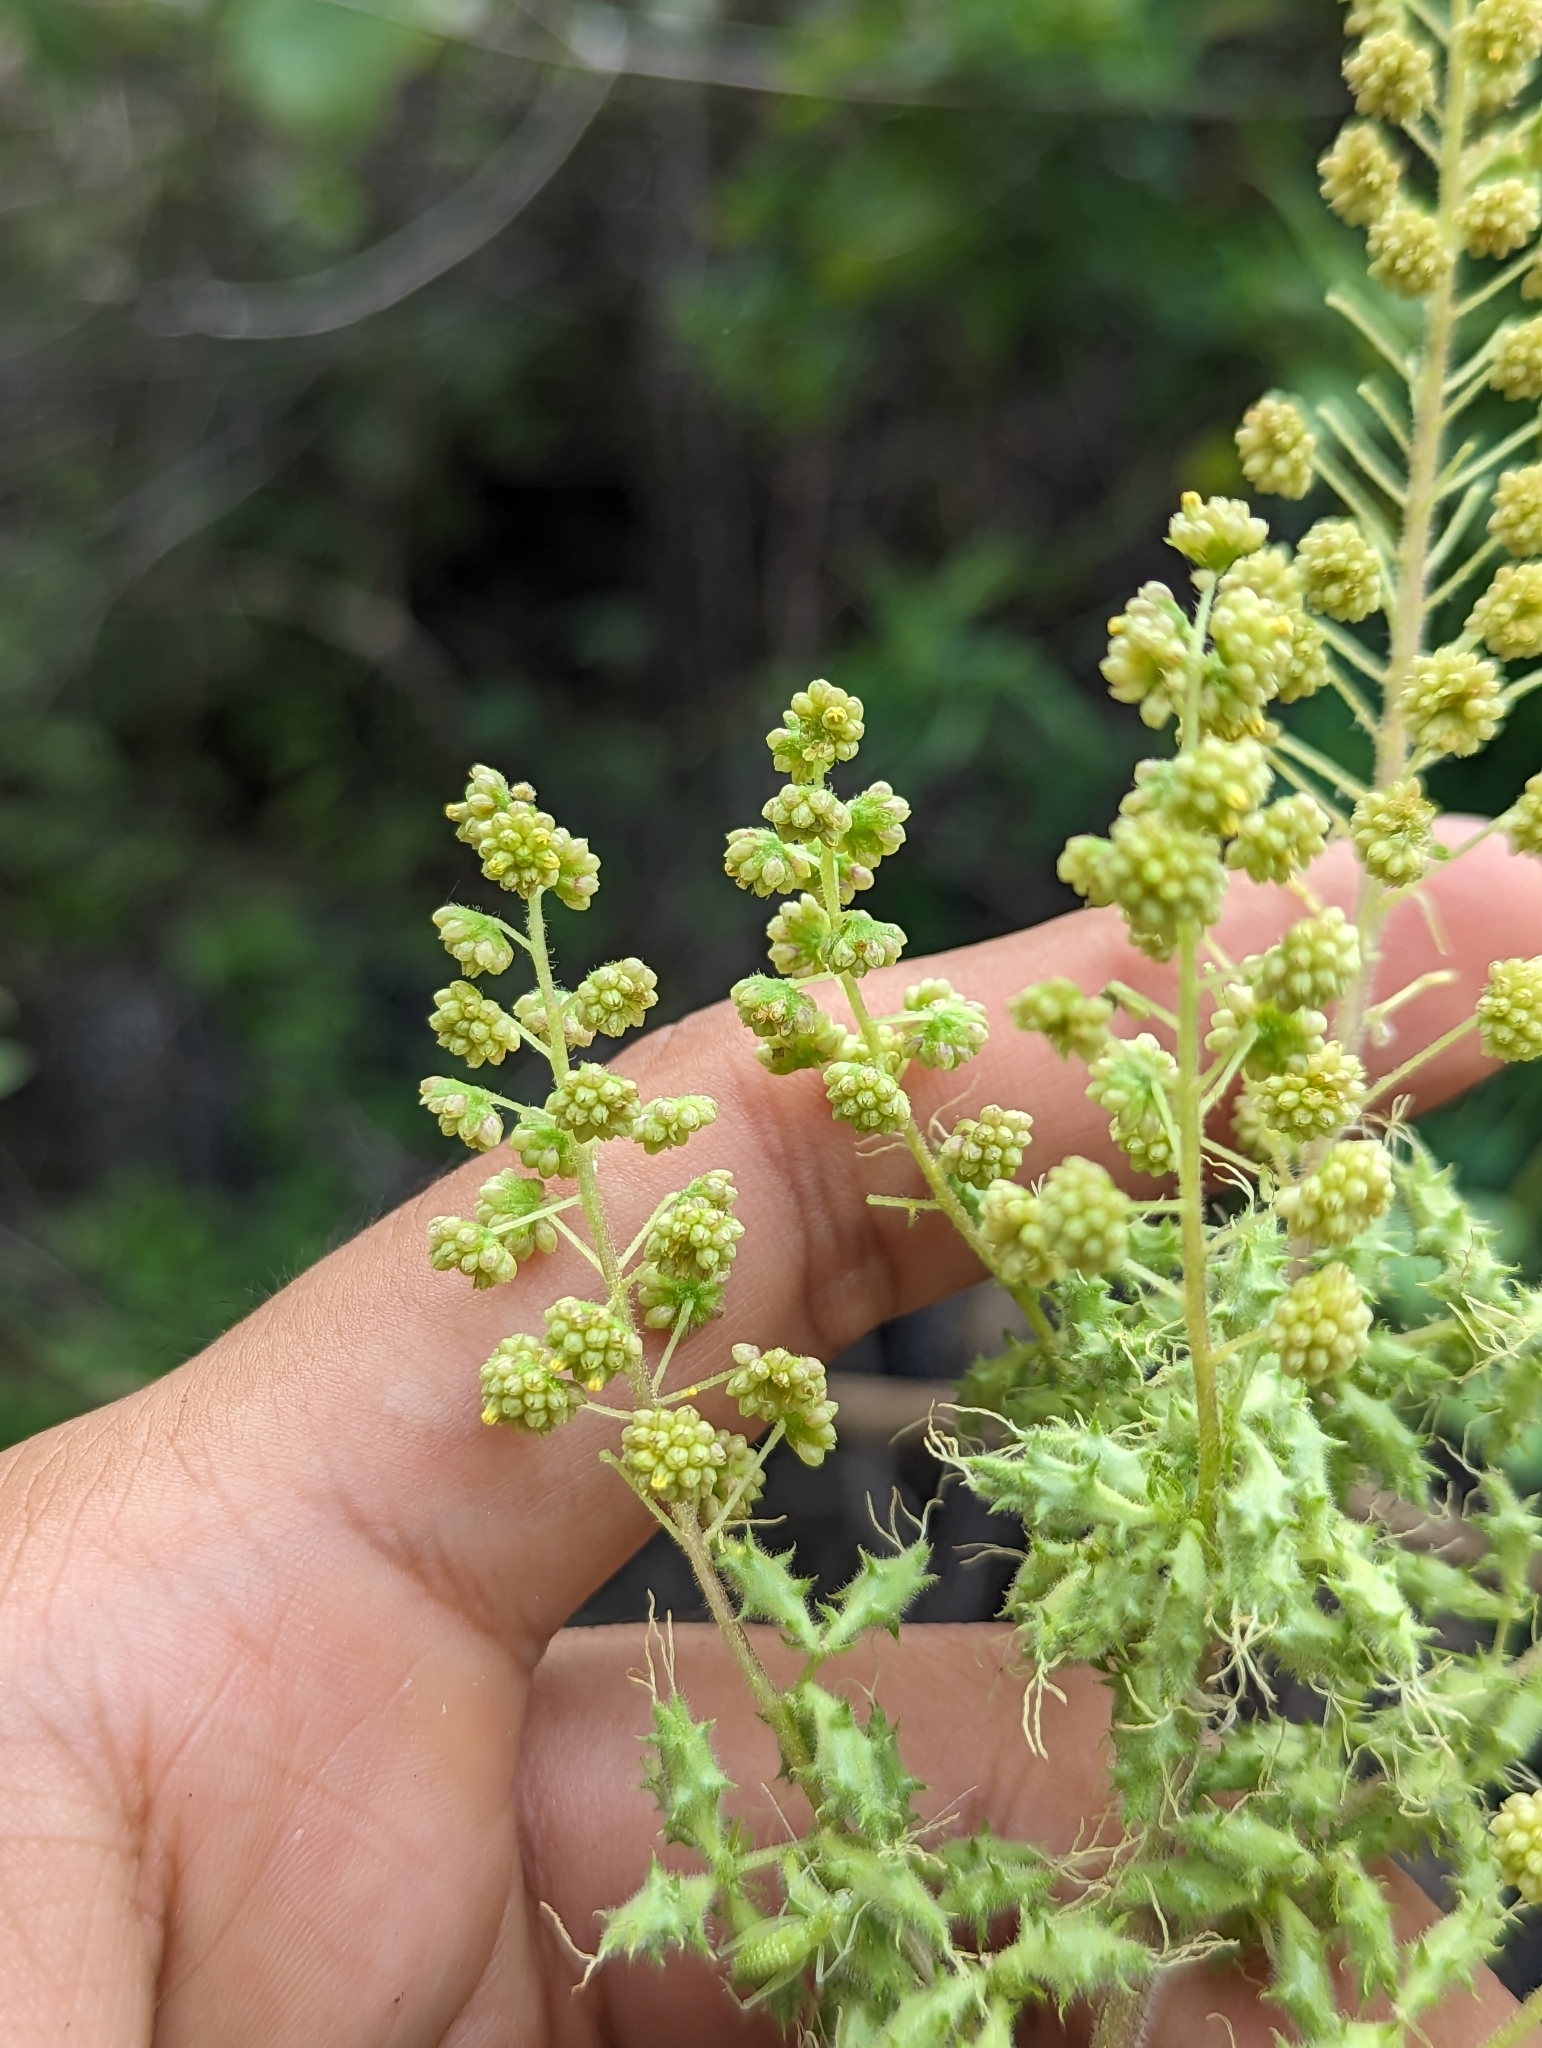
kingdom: Plantae
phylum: Tracheophyta
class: Magnoliopsida
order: Asterales
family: Asteraceae
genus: Ambrosia
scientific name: Ambrosia carduacea
